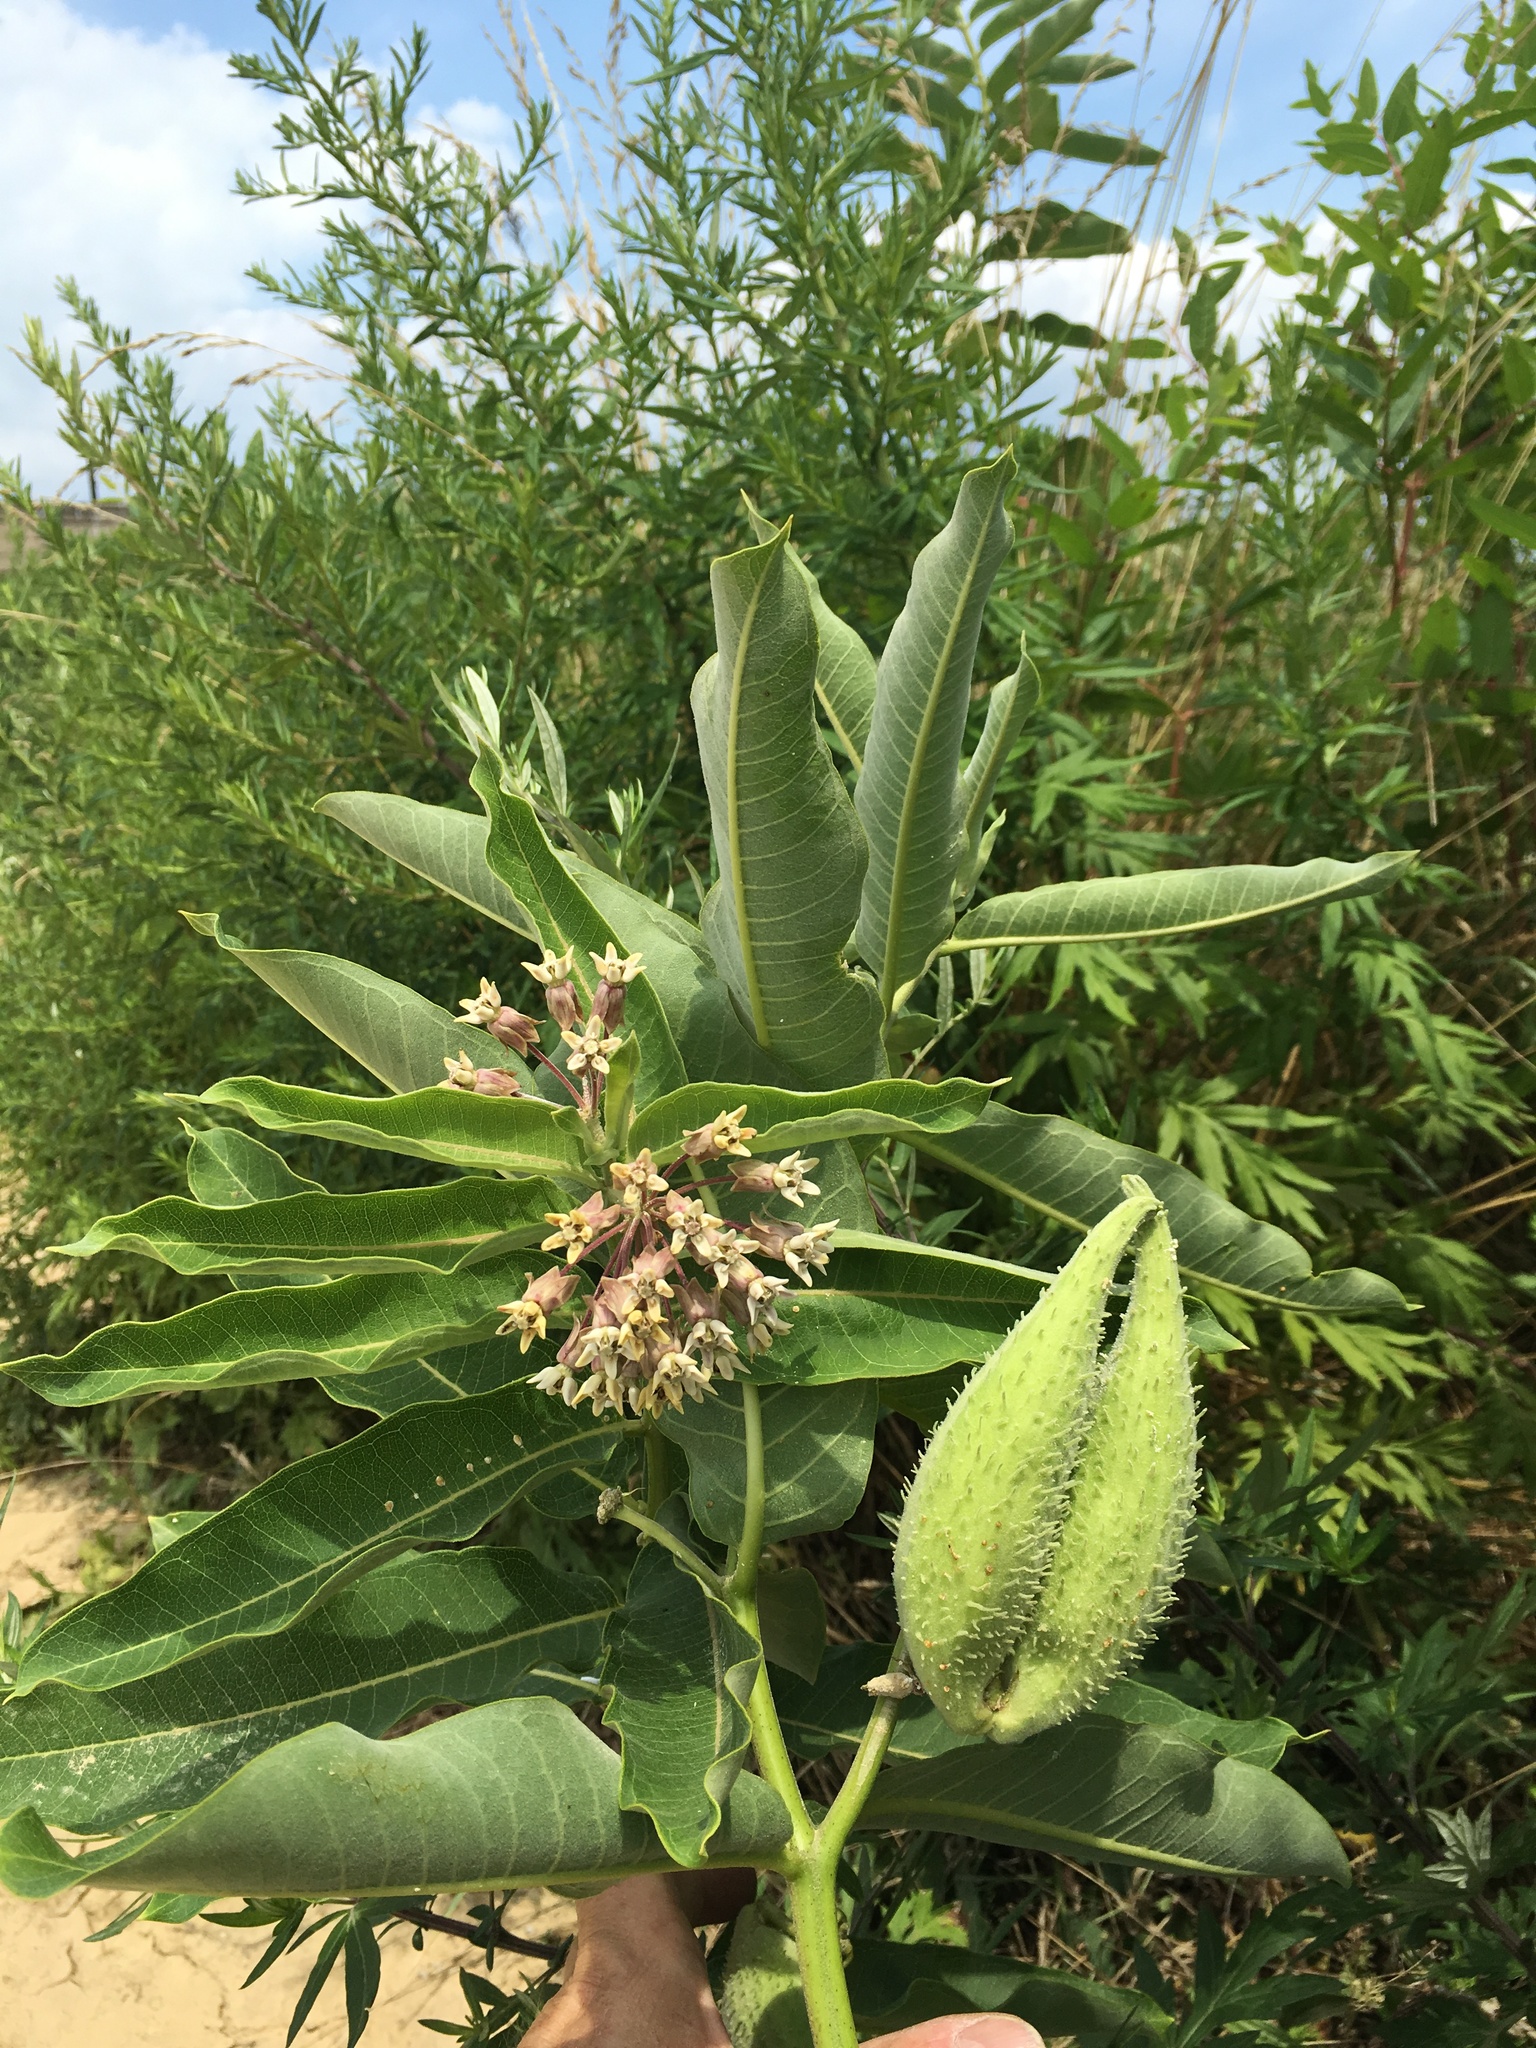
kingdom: Plantae
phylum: Tracheophyta
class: Magnoliopsida
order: Gentianales
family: Apocynaceae
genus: Asclepias
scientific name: Asclepias syriaca
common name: Common milkweed
